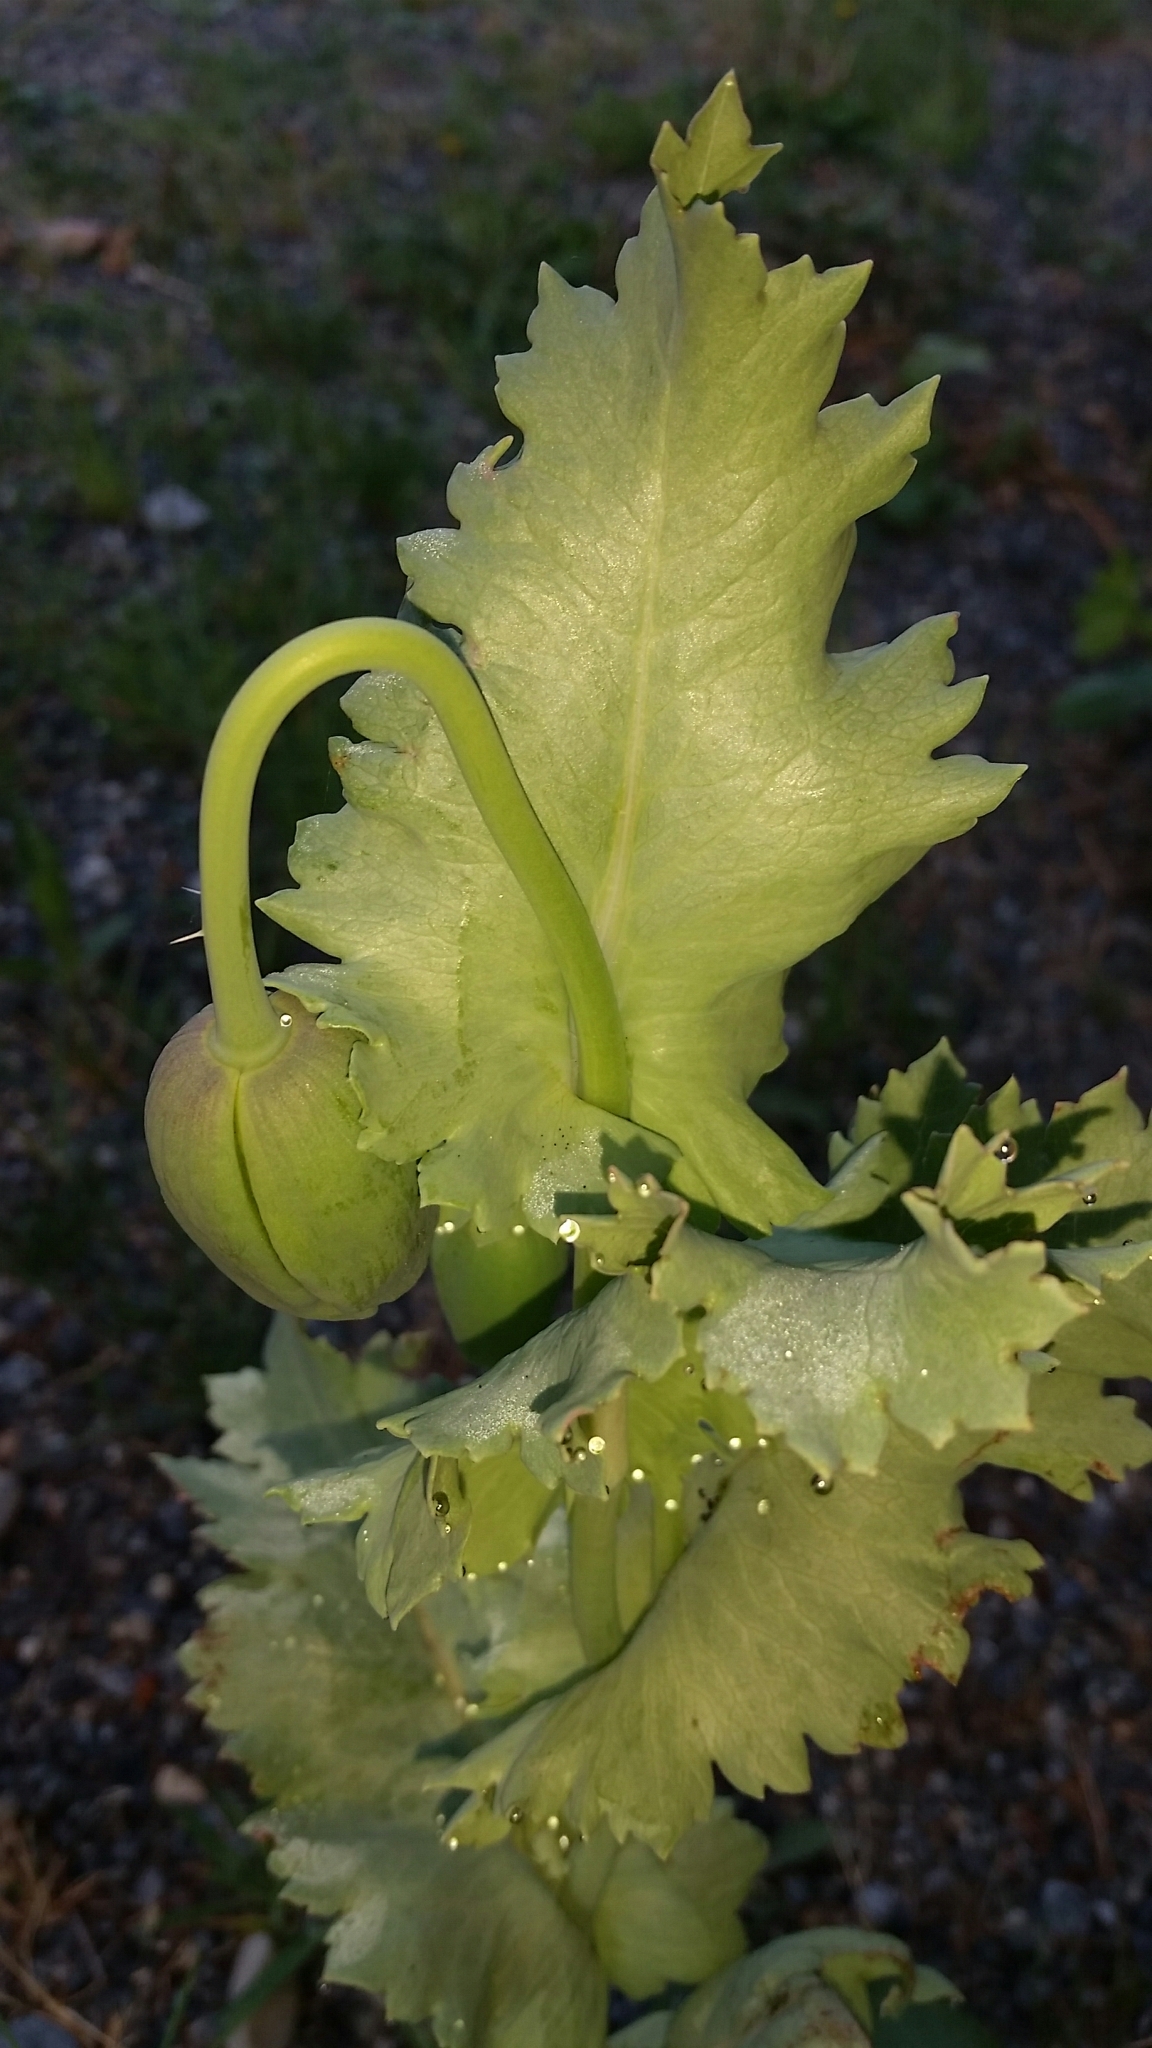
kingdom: Plantae
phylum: Tracheophyta
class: Magnoliopsida
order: Ranunculales
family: Papaveraceae
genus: Papaver
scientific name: Papaver somniferum
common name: Opium poppy
